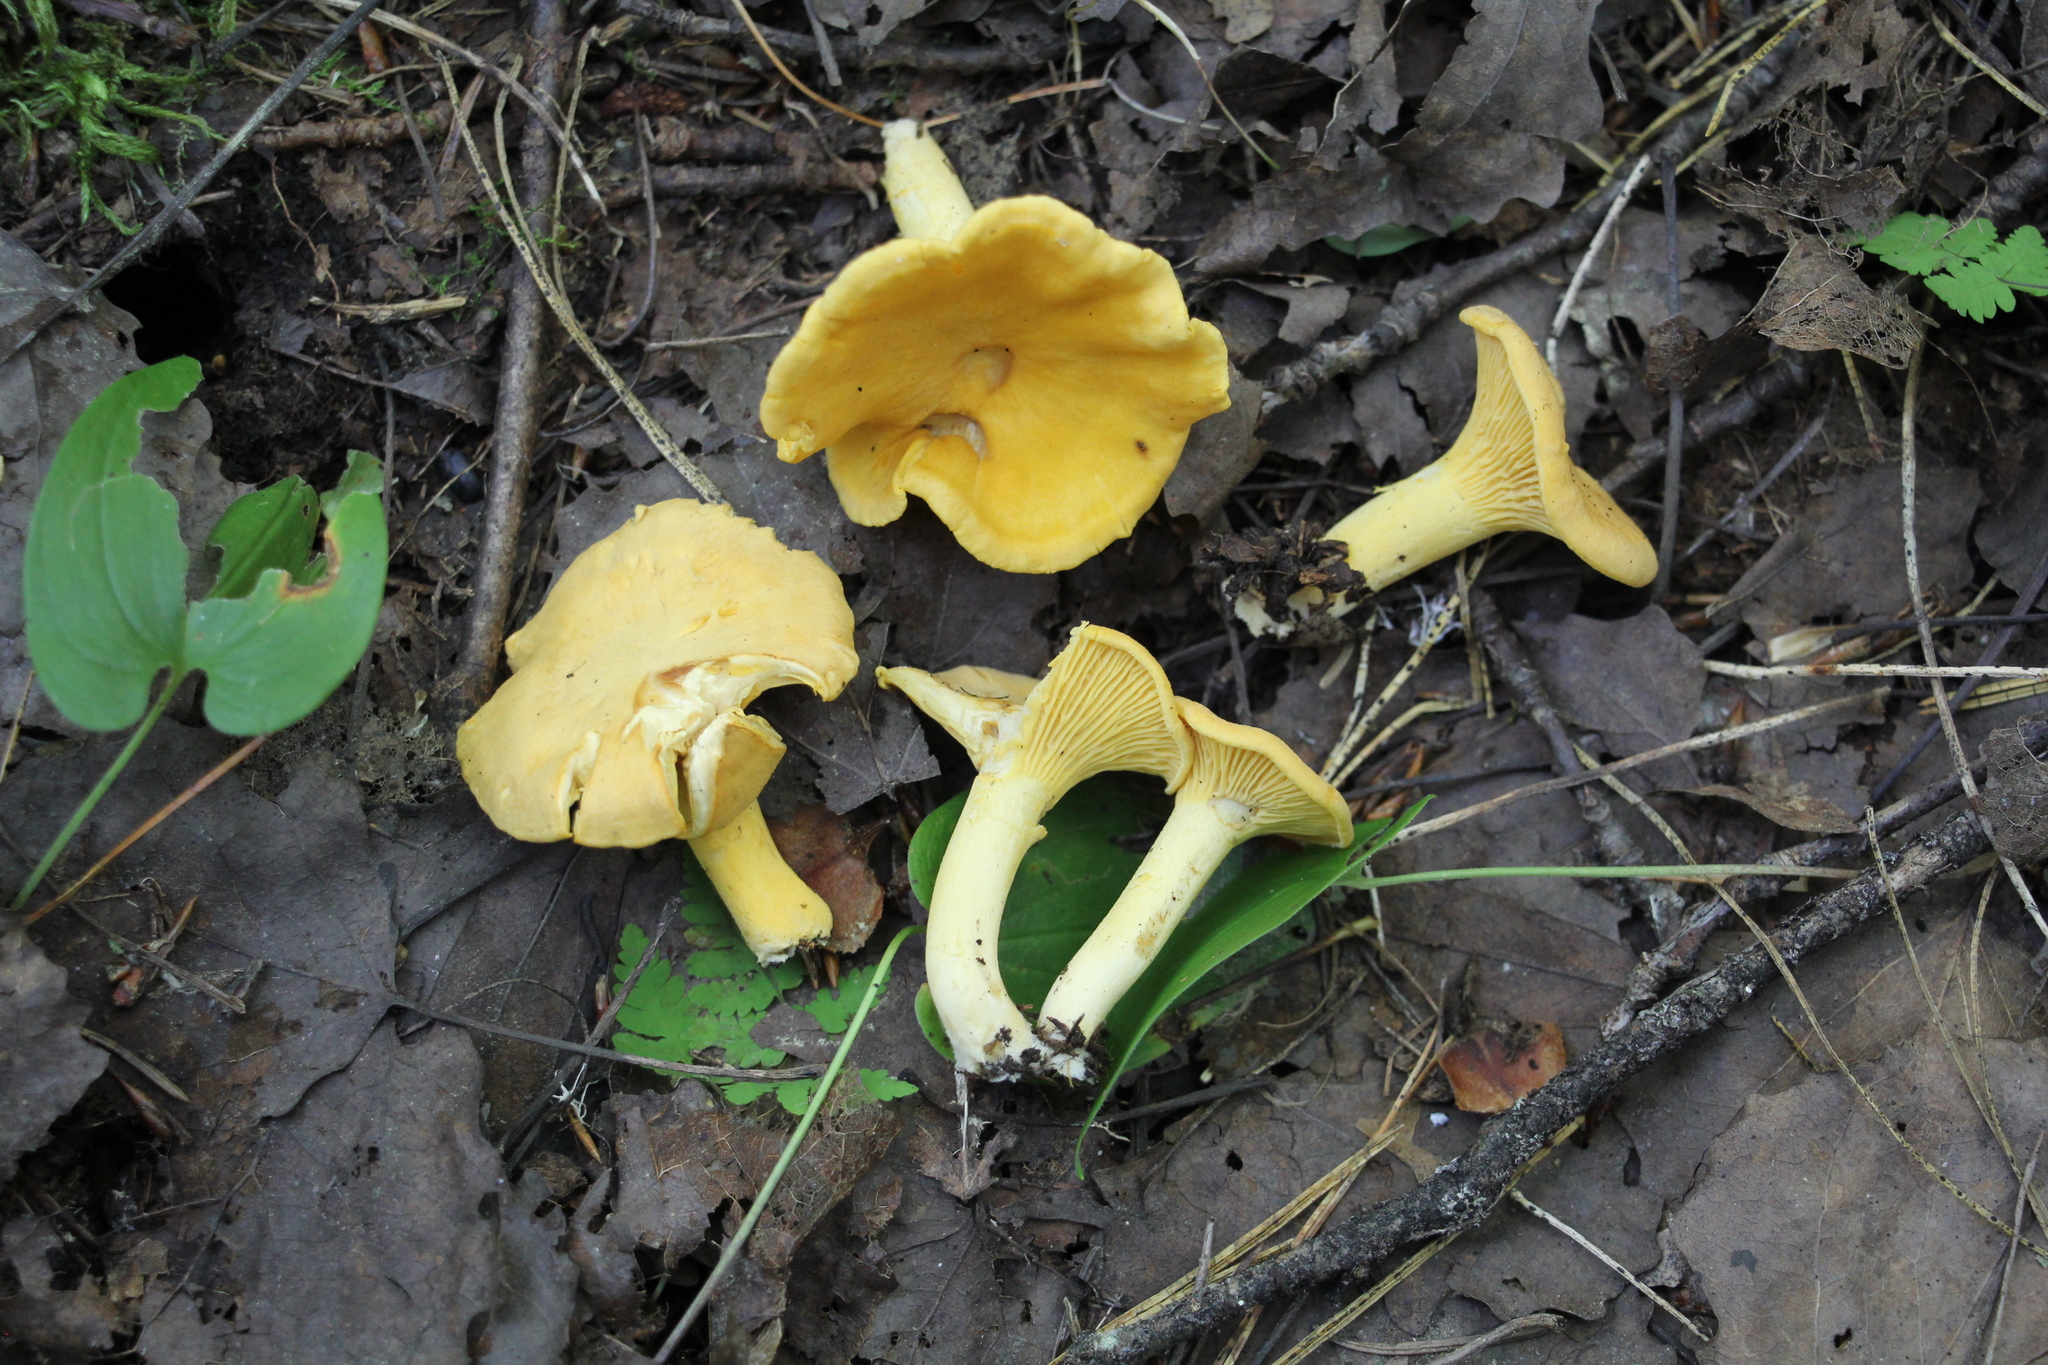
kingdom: Fungi
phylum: Basidiomycota
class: Agaricomycetes
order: Cantharellales
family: Hydnaceae
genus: Cantharellus
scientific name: Cantharellus cibarius
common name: Chanterelle
